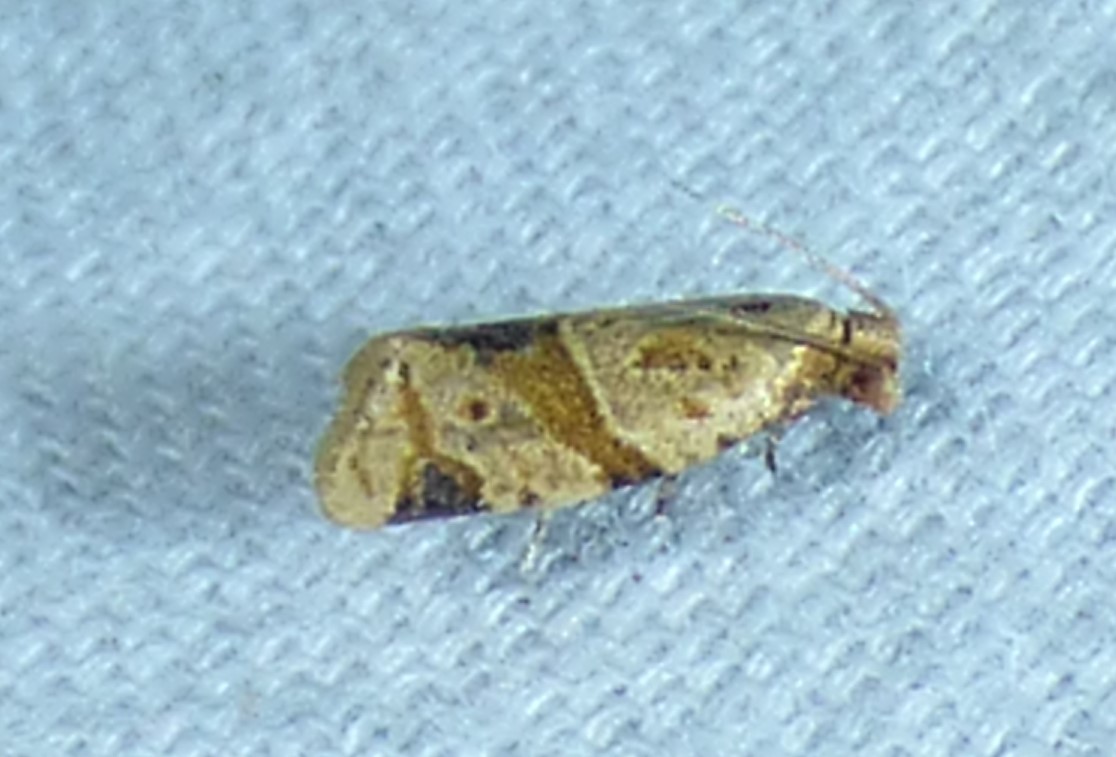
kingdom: Animalia
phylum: Arthropoda
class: Insecta
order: Lepidoptera
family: Tortricidae
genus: Clepsis
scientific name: Clepsis peritana
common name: Garden tortrix
